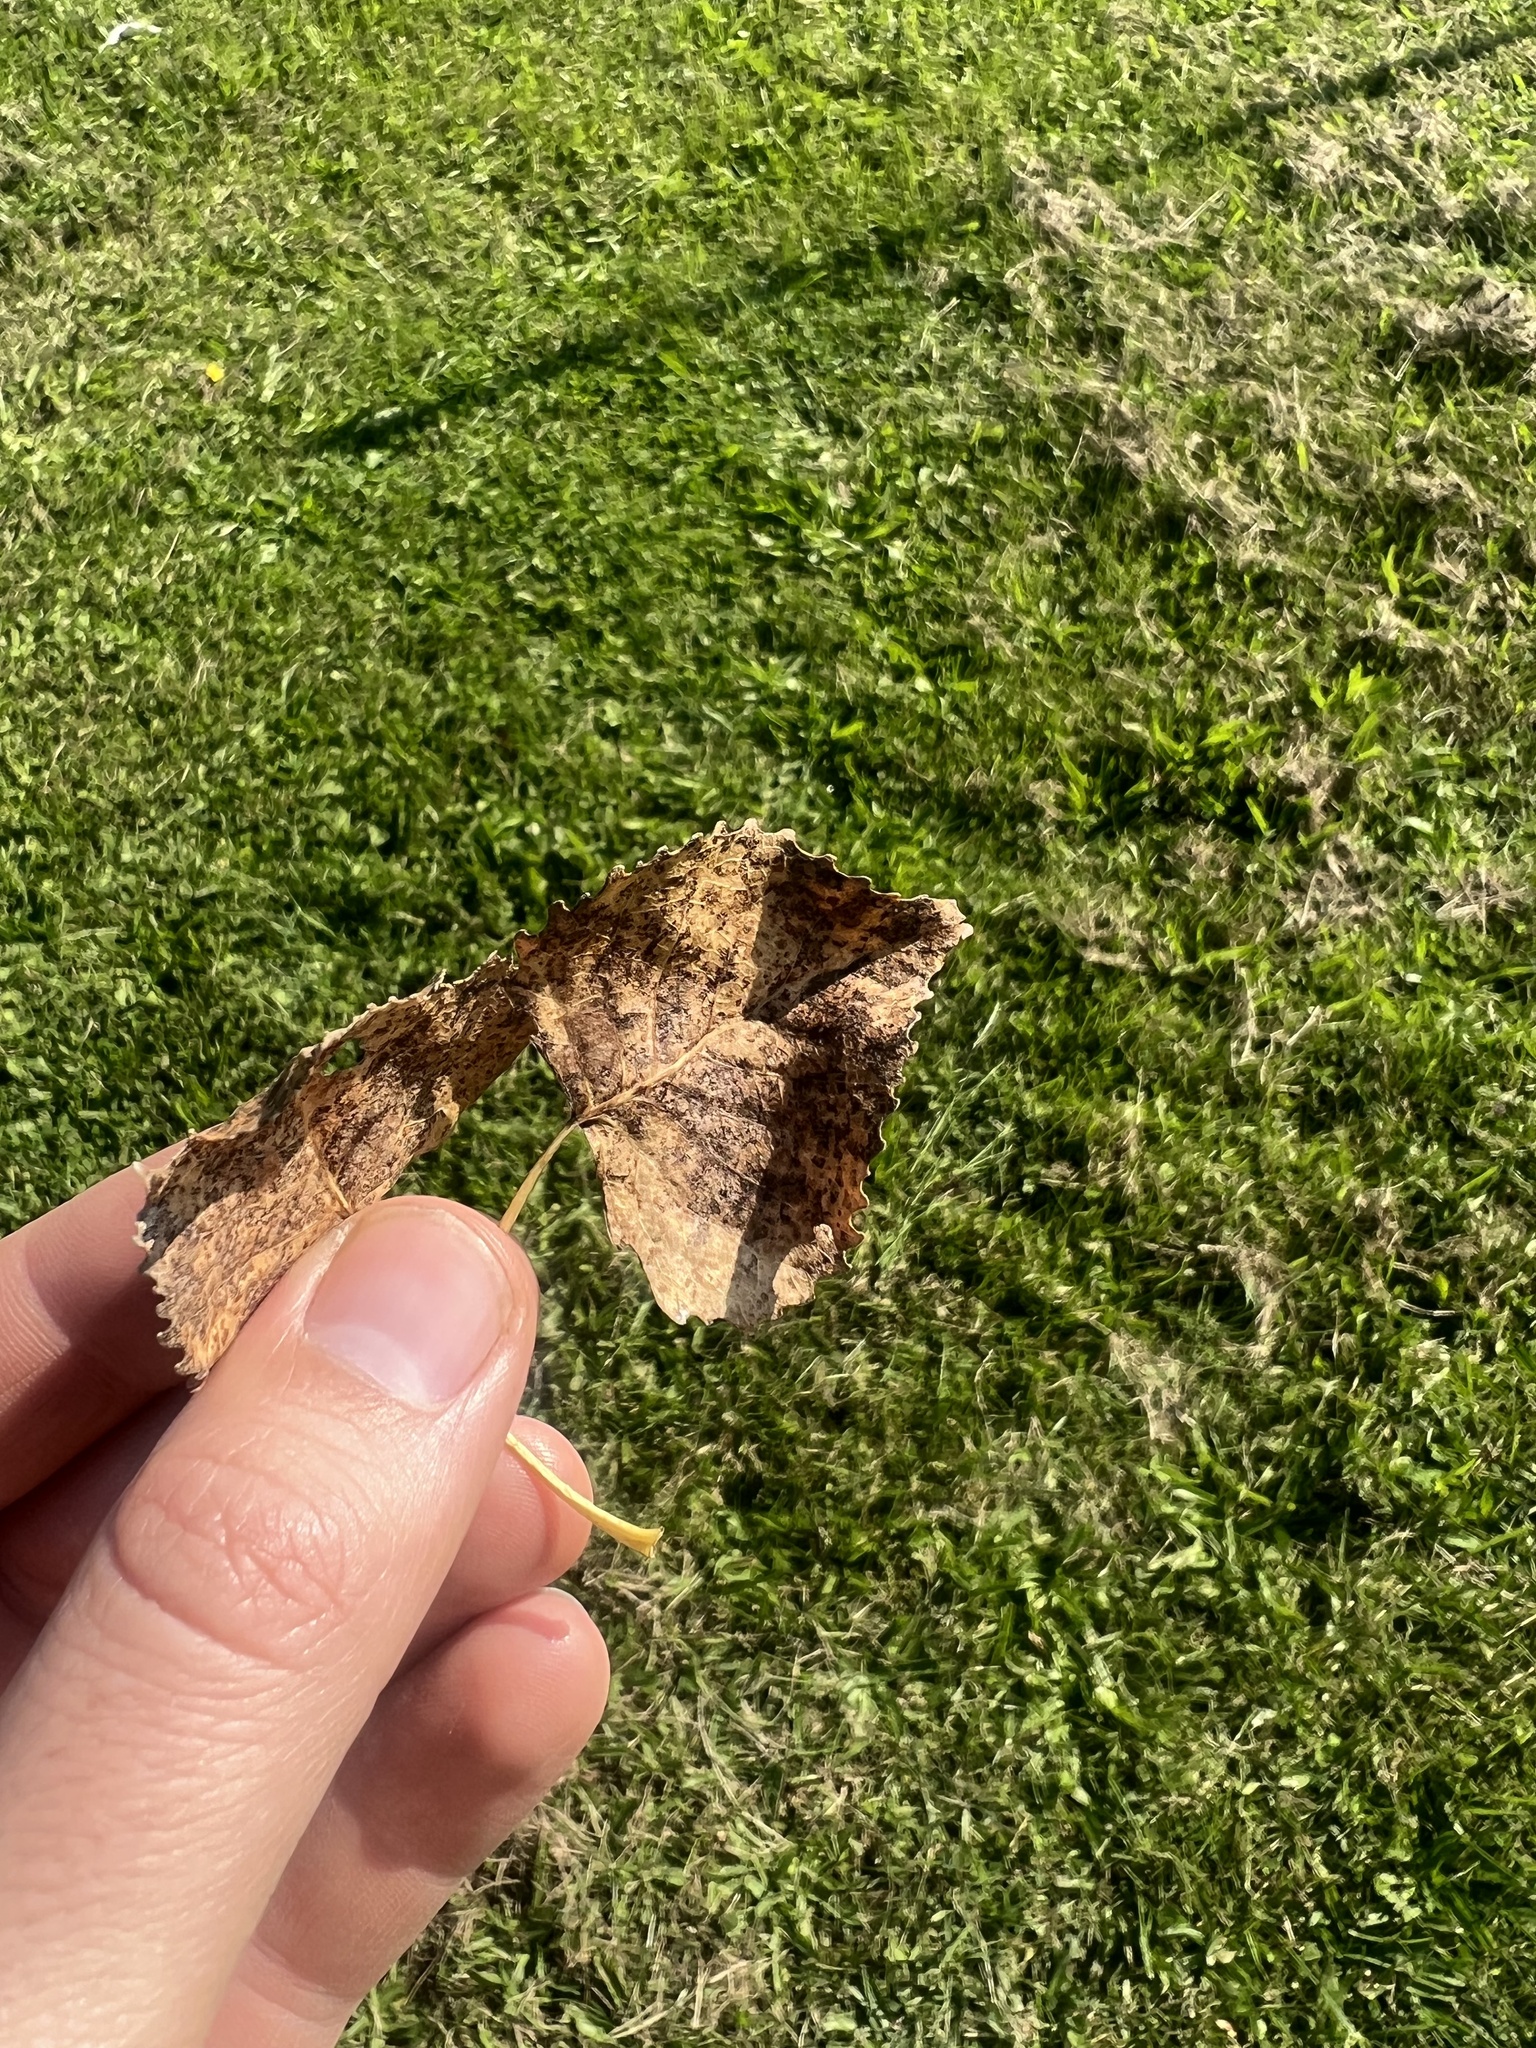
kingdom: Plantae
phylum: Tracheophyta
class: Magnoliopsida
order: Malpighiales
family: Salicaceae
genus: Populus
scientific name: Populus deltoides
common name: Eastern cottonwood
